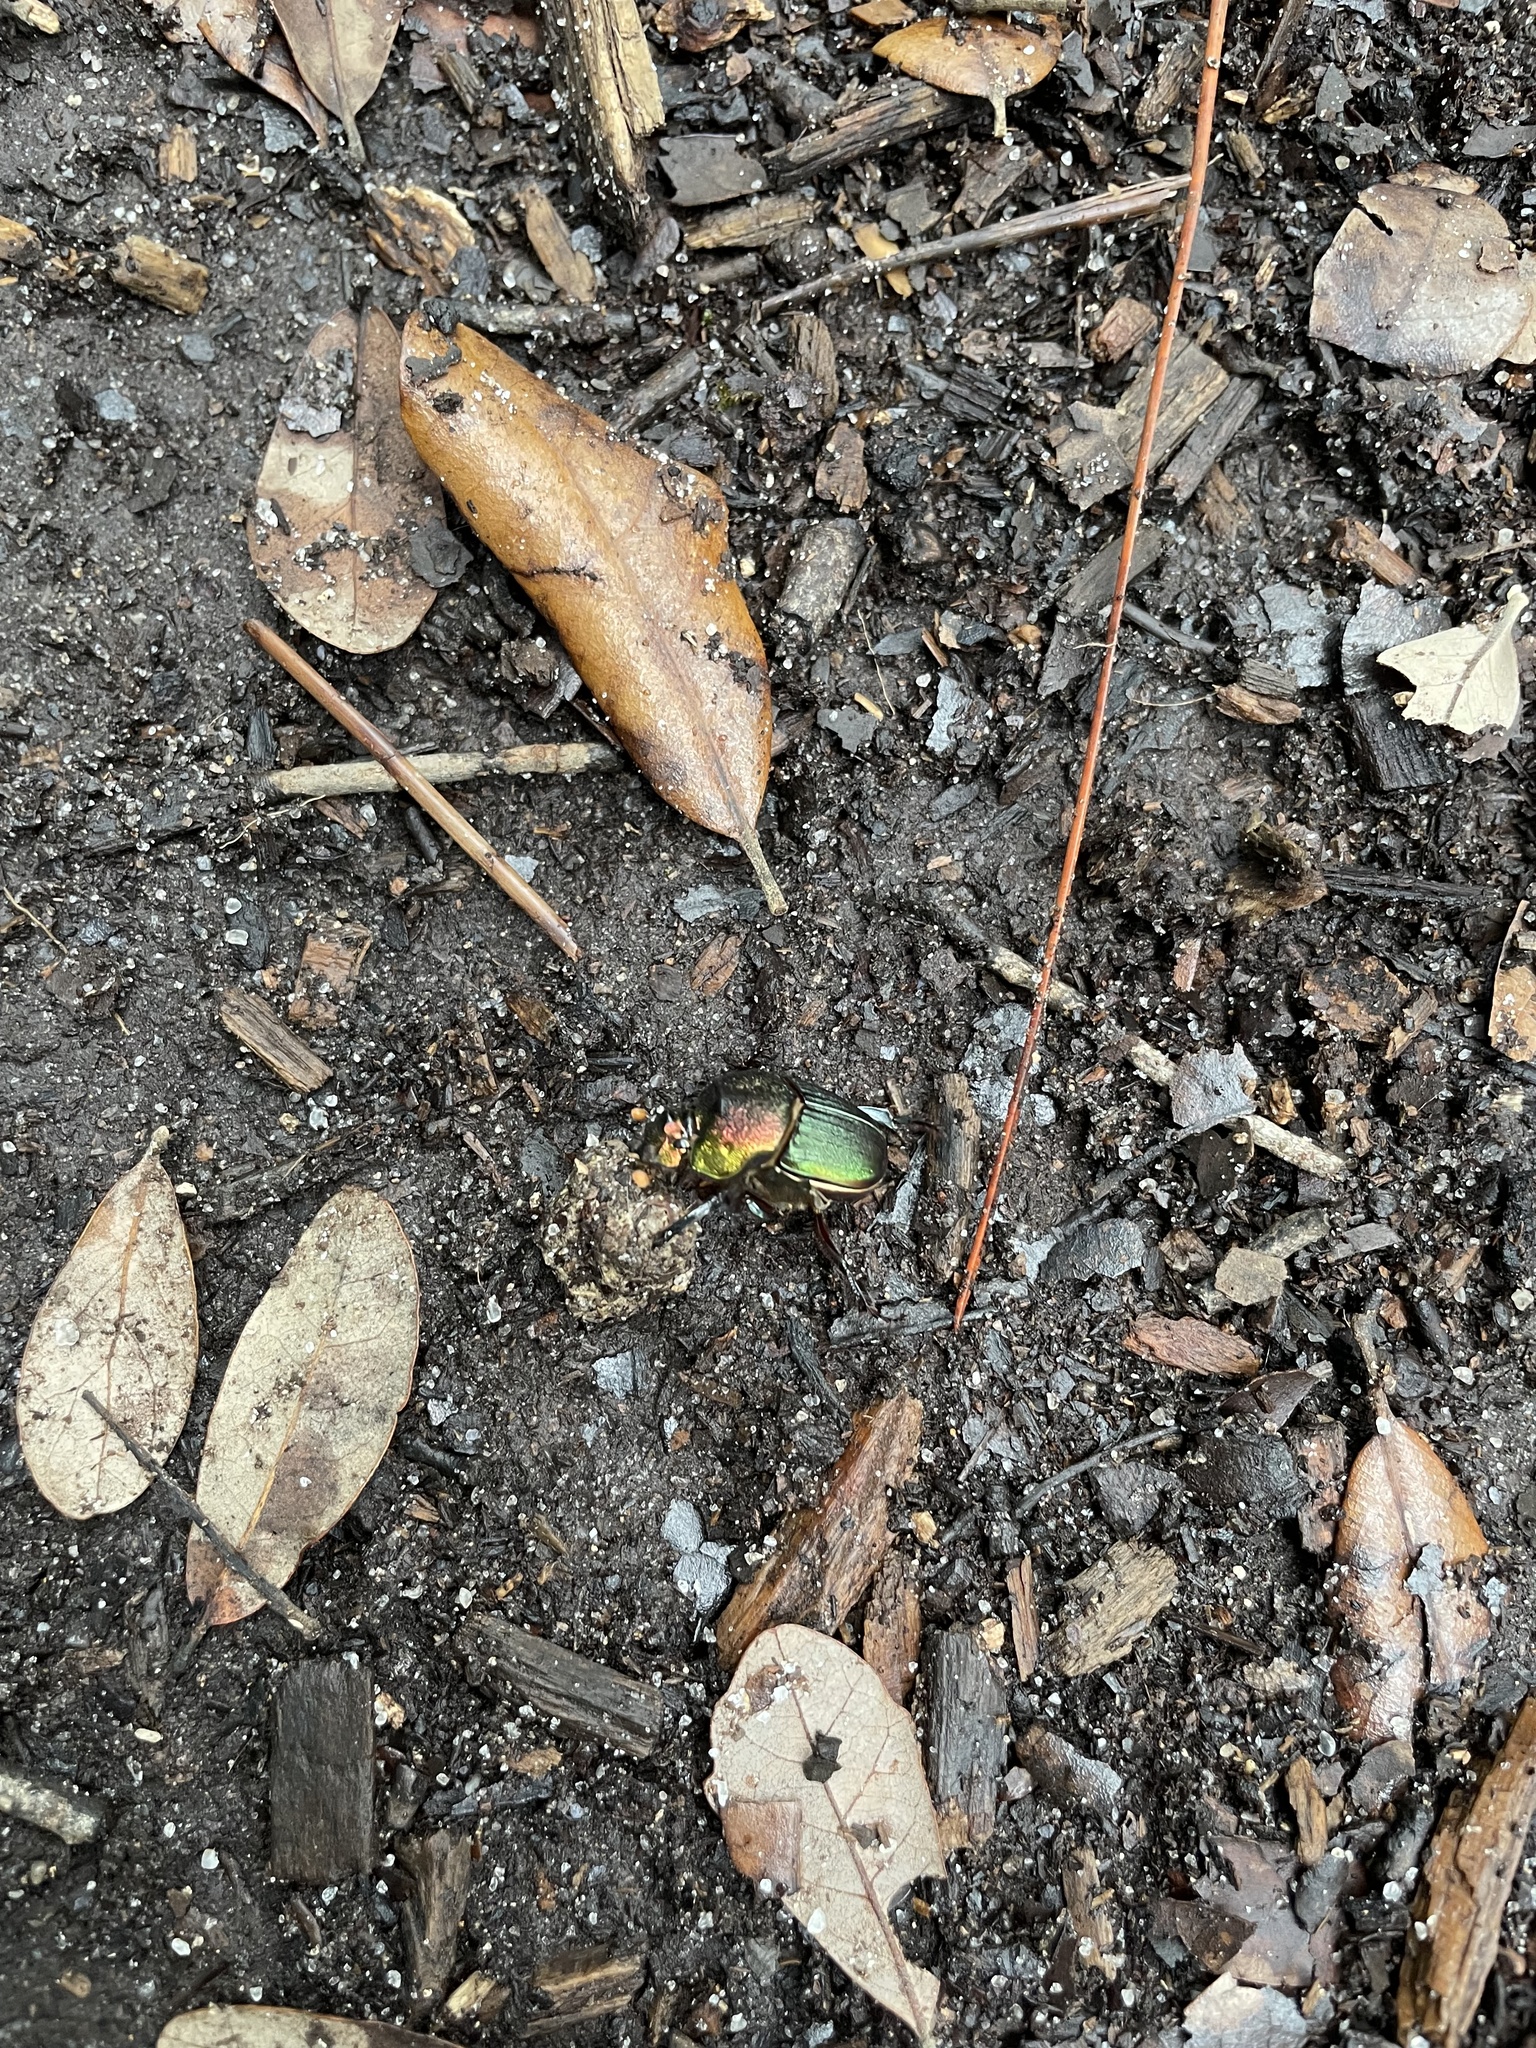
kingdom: Animalia
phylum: Arthropoda
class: Insecta
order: Coleoptera
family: Scarabaeidae
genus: Phanaeus
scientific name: Phanaeus vindex
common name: Rainbow scarab
